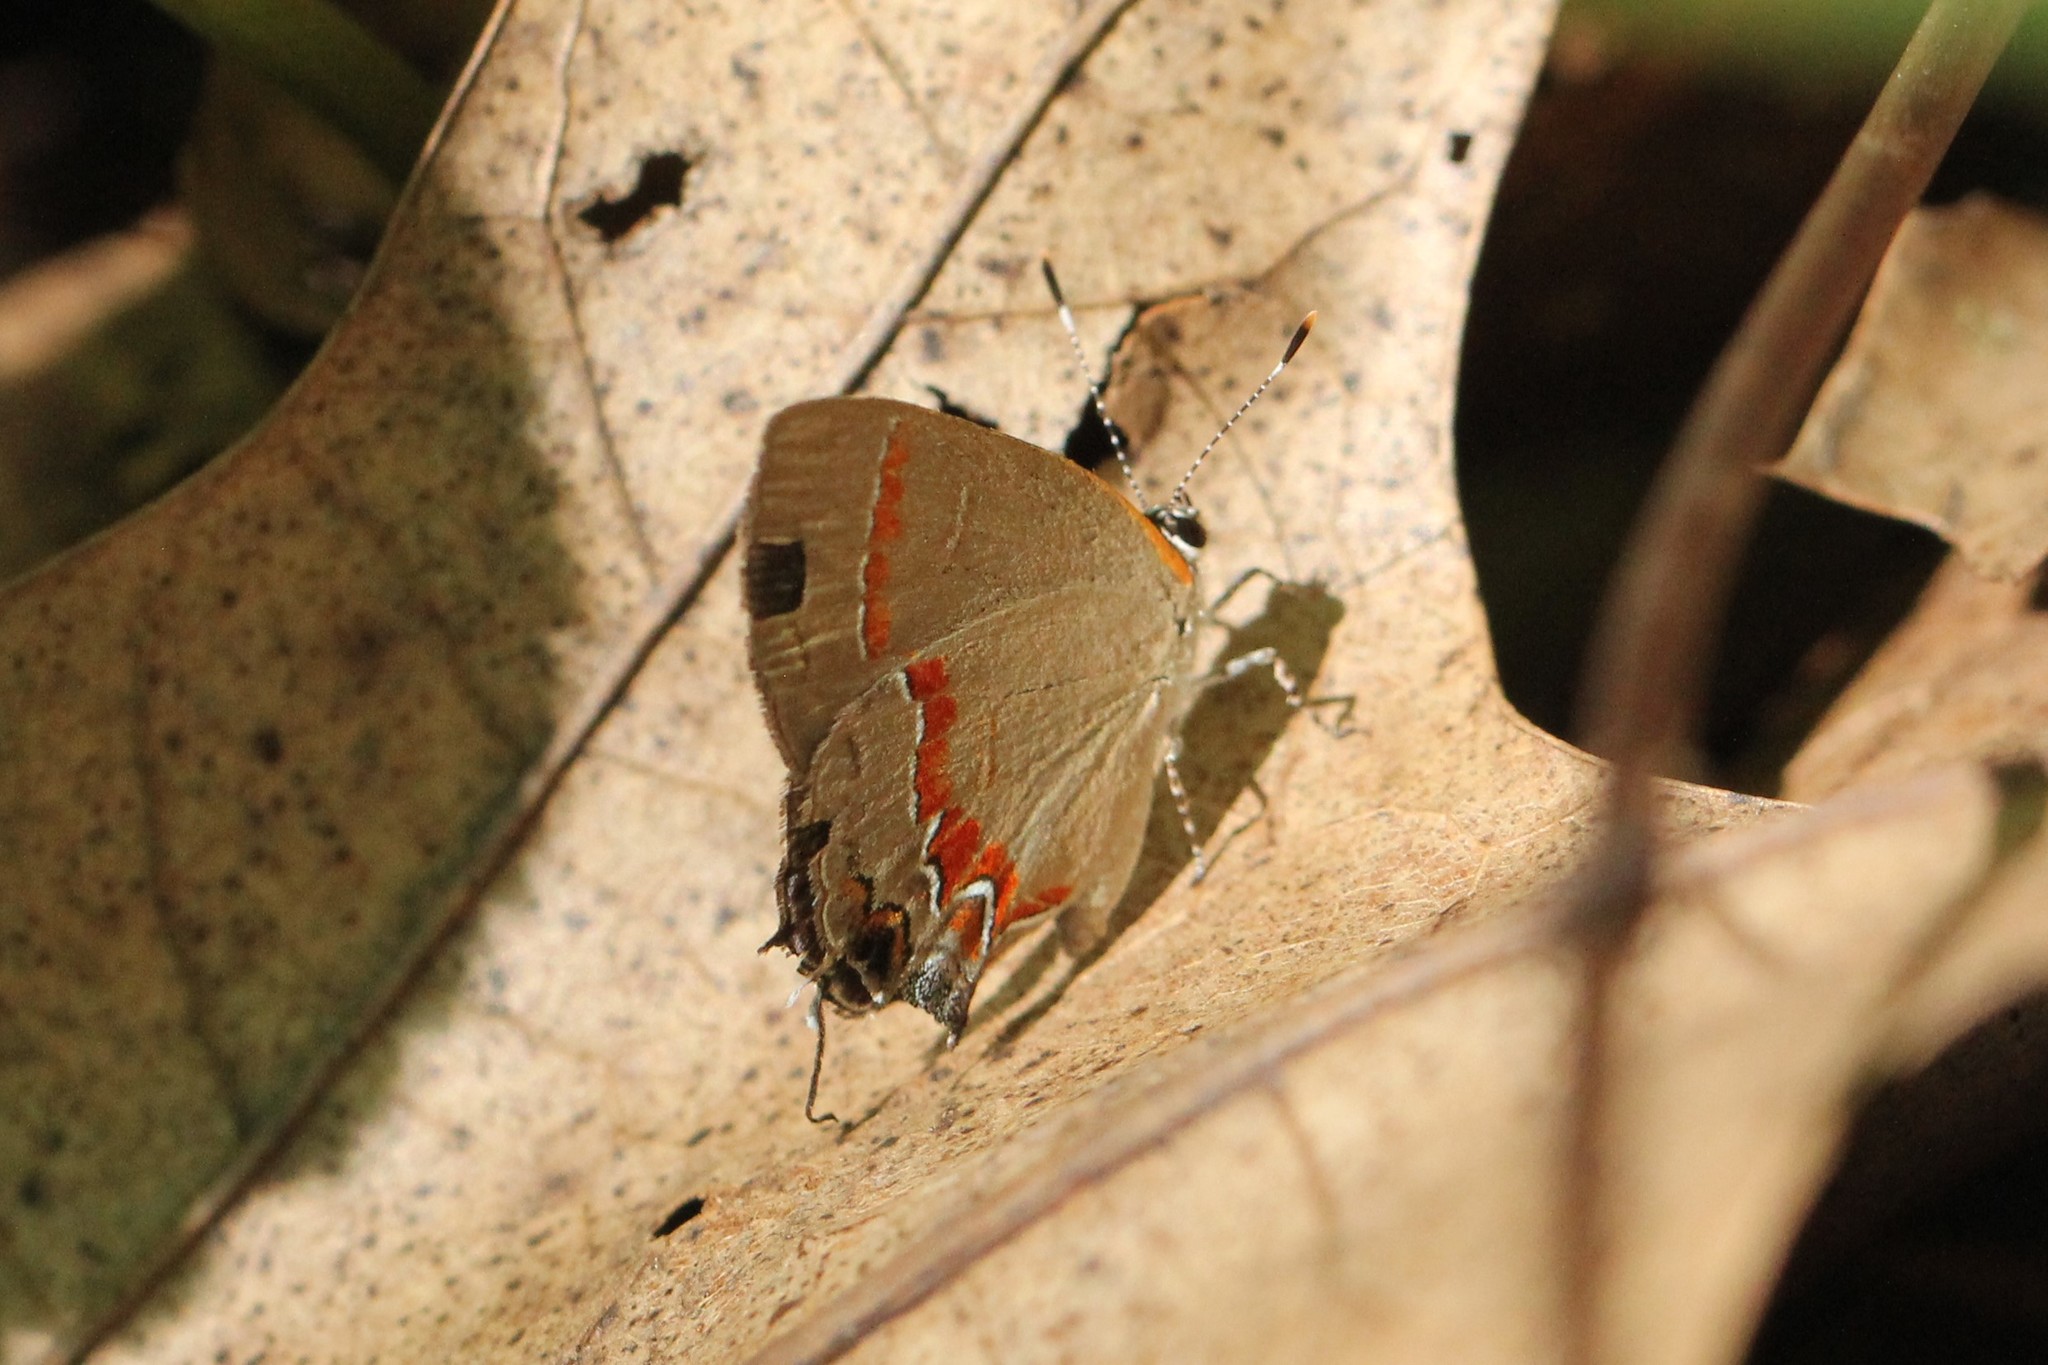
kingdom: Animalia
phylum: Arthropoda
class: Insecta
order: Lepidoptera
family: Lycaenidae
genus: Calycopis
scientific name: Calycopis cecrops
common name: Red-banded hairstreak
